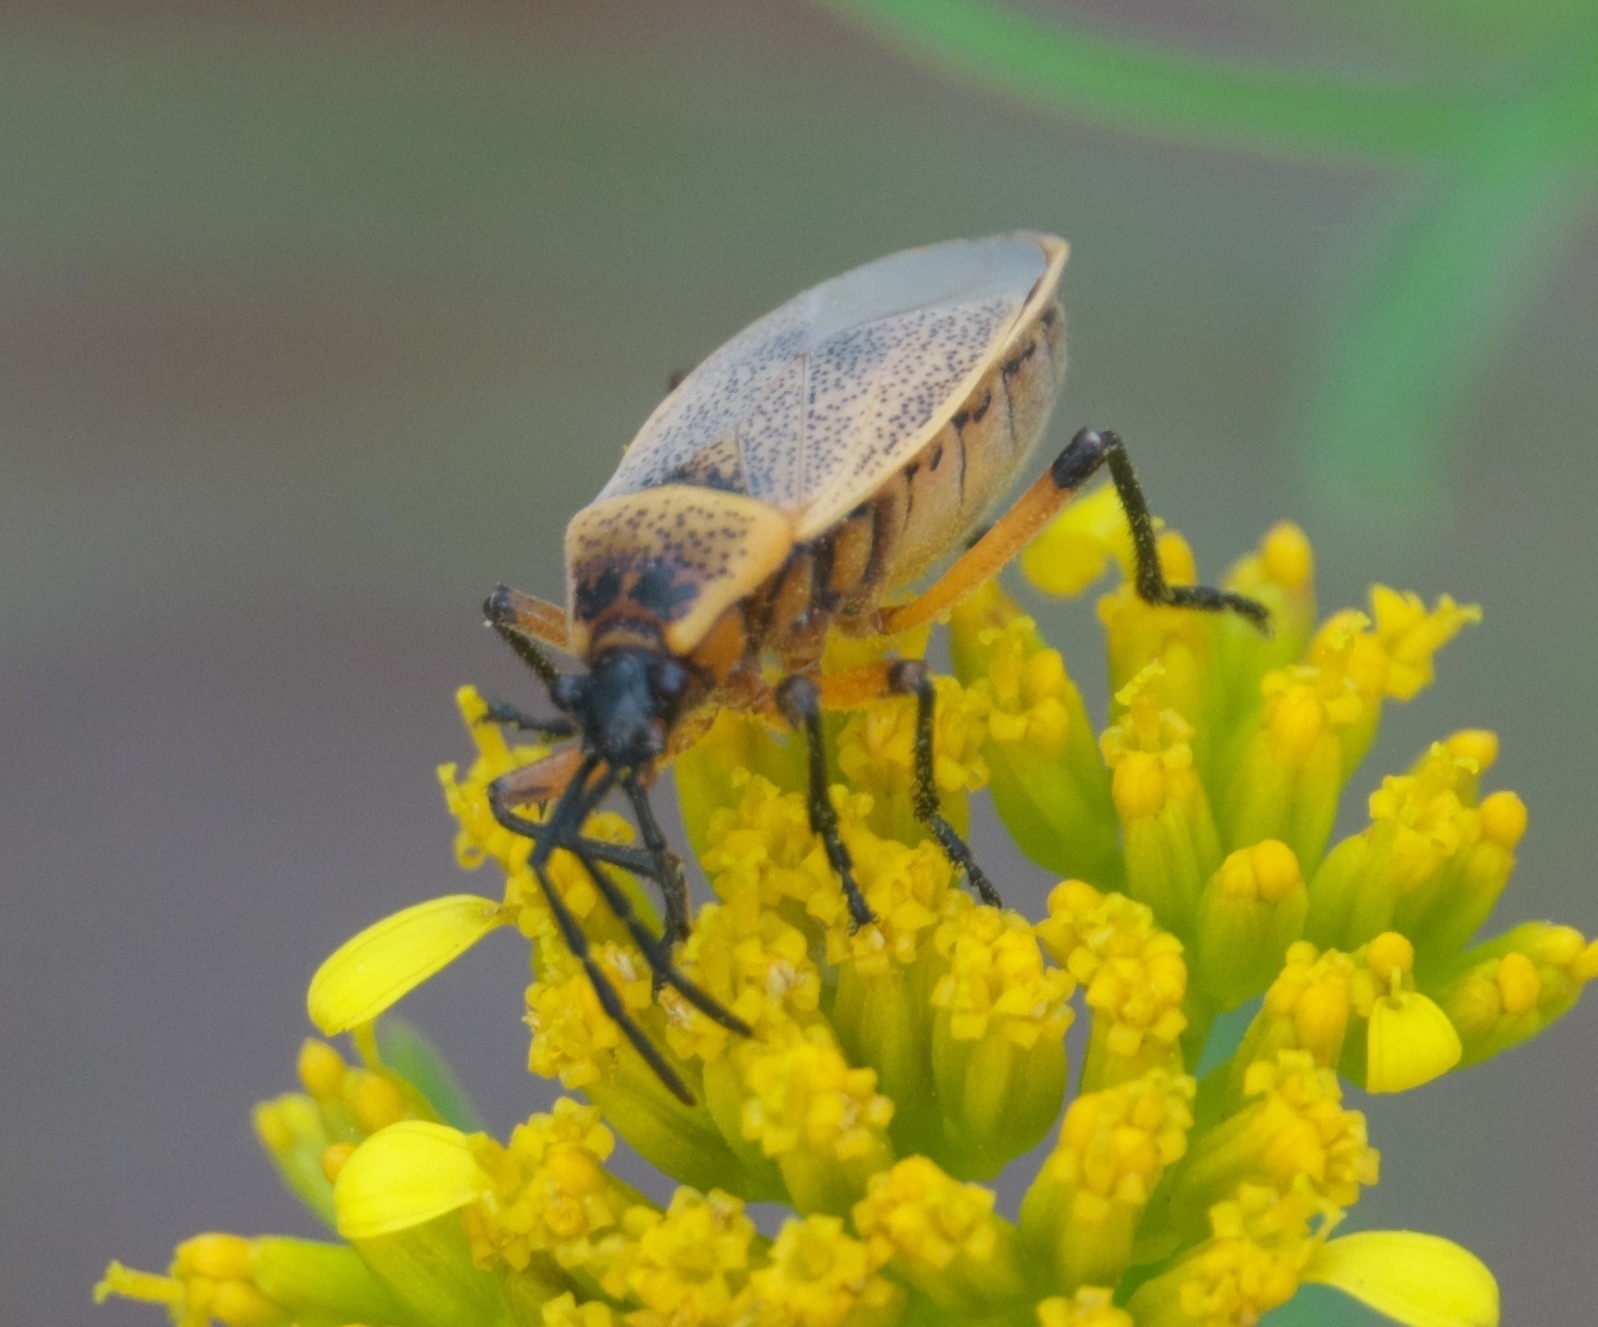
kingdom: Animalia
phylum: Arthropoda
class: Insecta
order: Hemiptera
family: Largidae
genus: Largus
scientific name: Largus davisi
